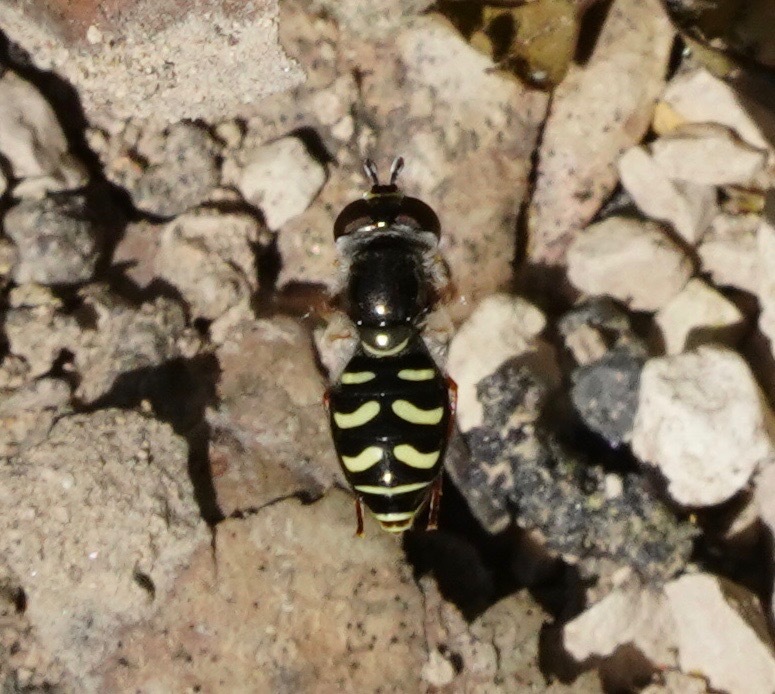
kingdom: Animalia
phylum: Arthropoda
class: Insecta
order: Diptera
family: Syrphidae
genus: Eupeodes
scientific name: Eupeodes volucris
